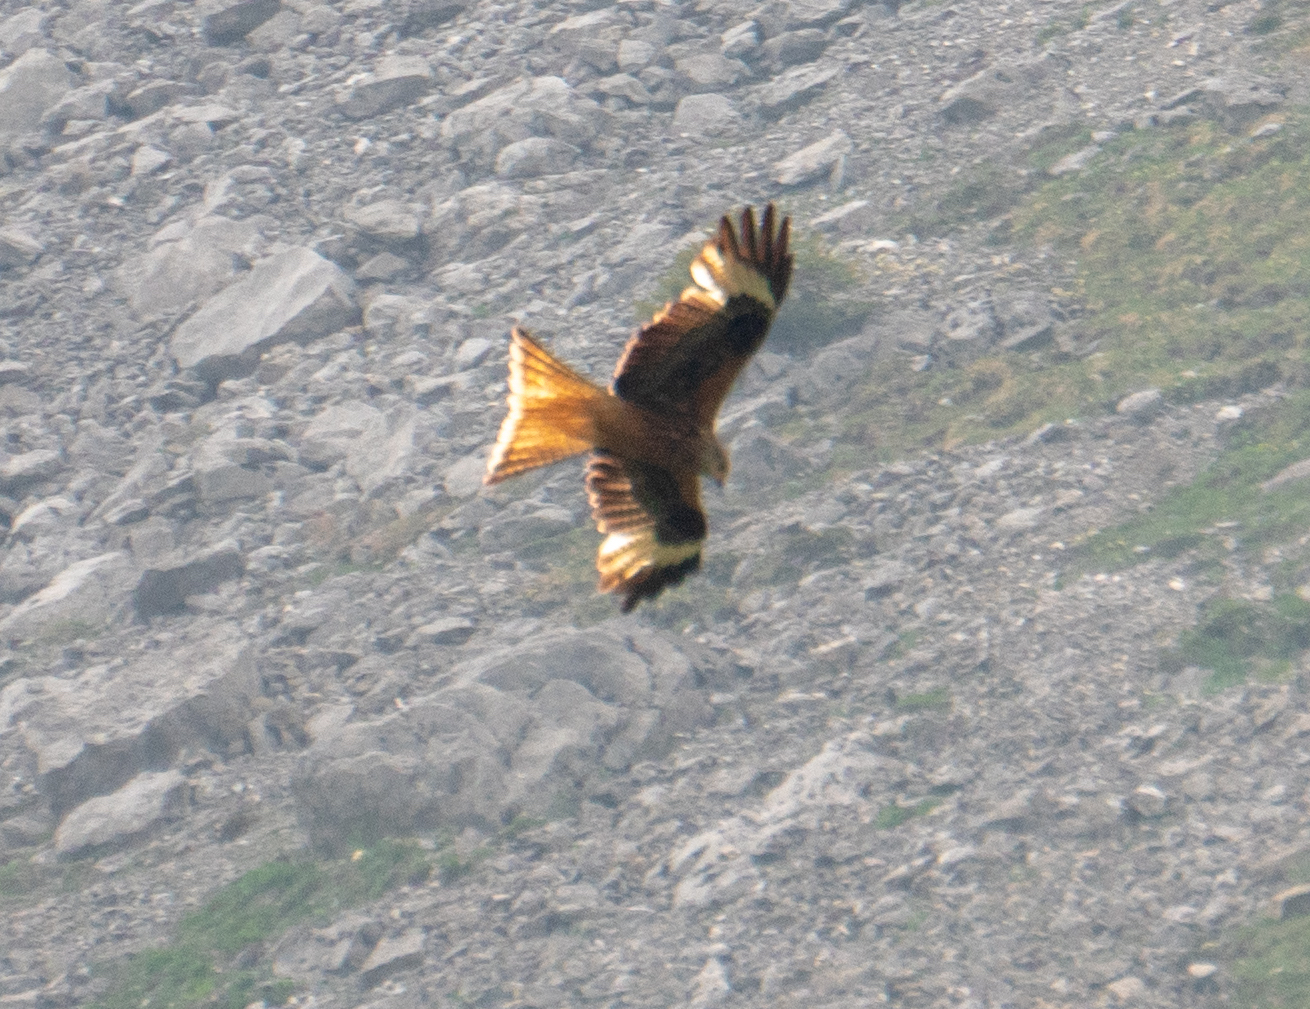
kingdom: Animalia
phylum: Chordata
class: Aves
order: Accipitriformes
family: Accipitridae
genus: Milvus
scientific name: Milvus milvus
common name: Red kite
